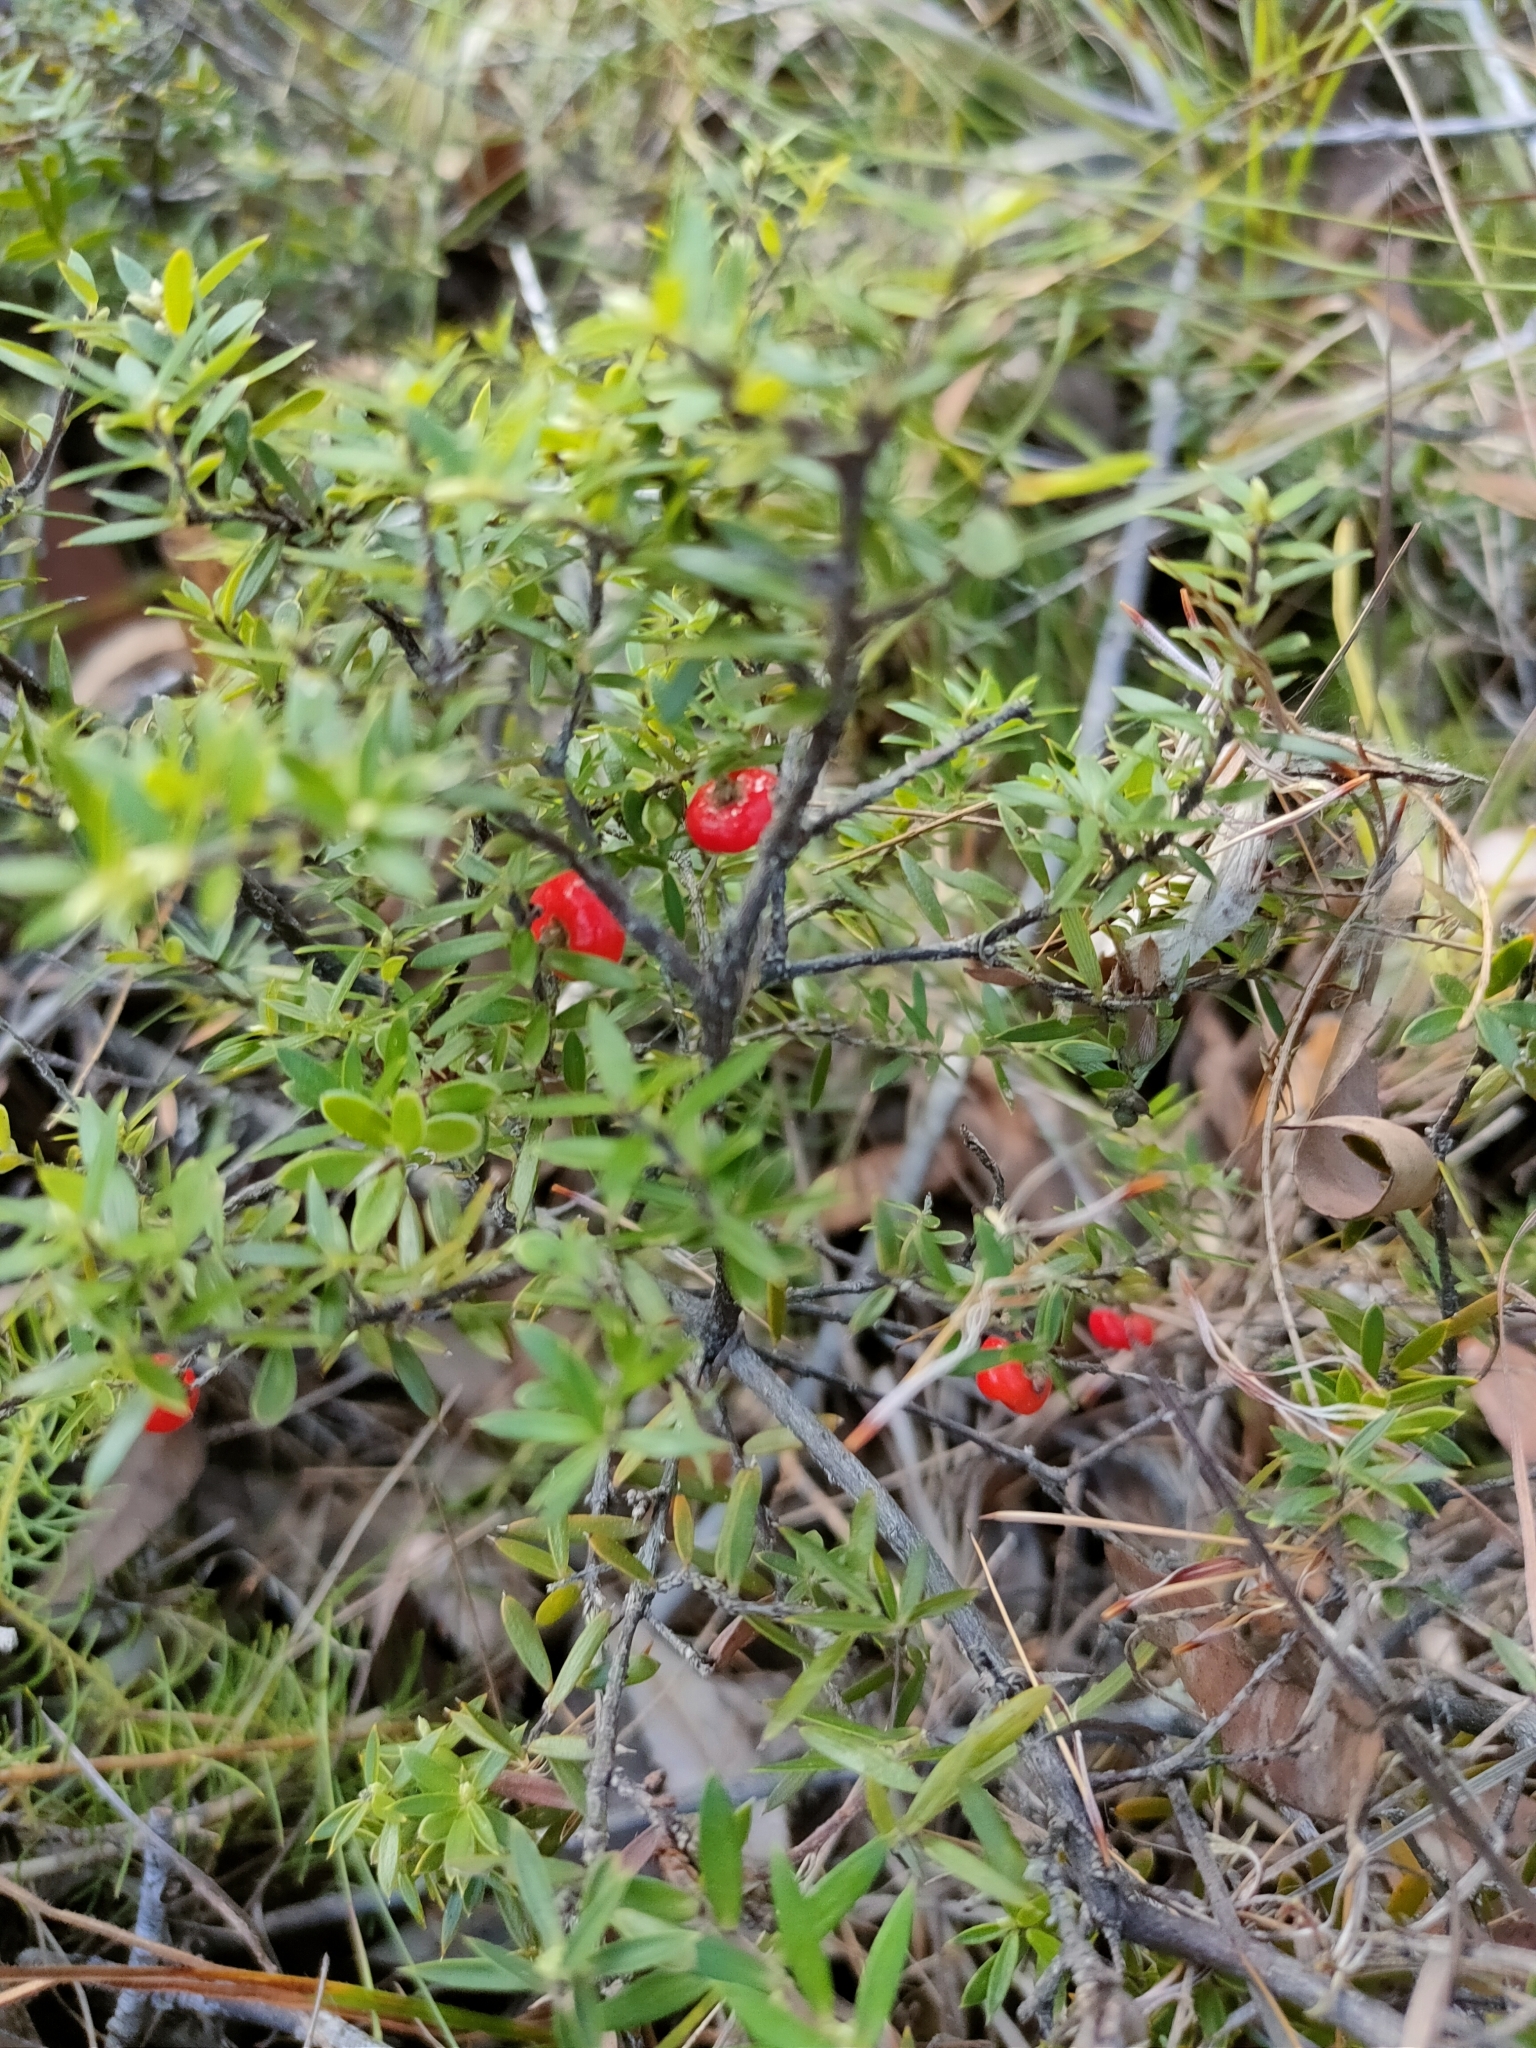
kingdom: Plantae
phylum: Tracheophyta
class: Magnoliopsida
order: Ericales
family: Ericaceae
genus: Acrotriche
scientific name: Acrotriche aggregata
